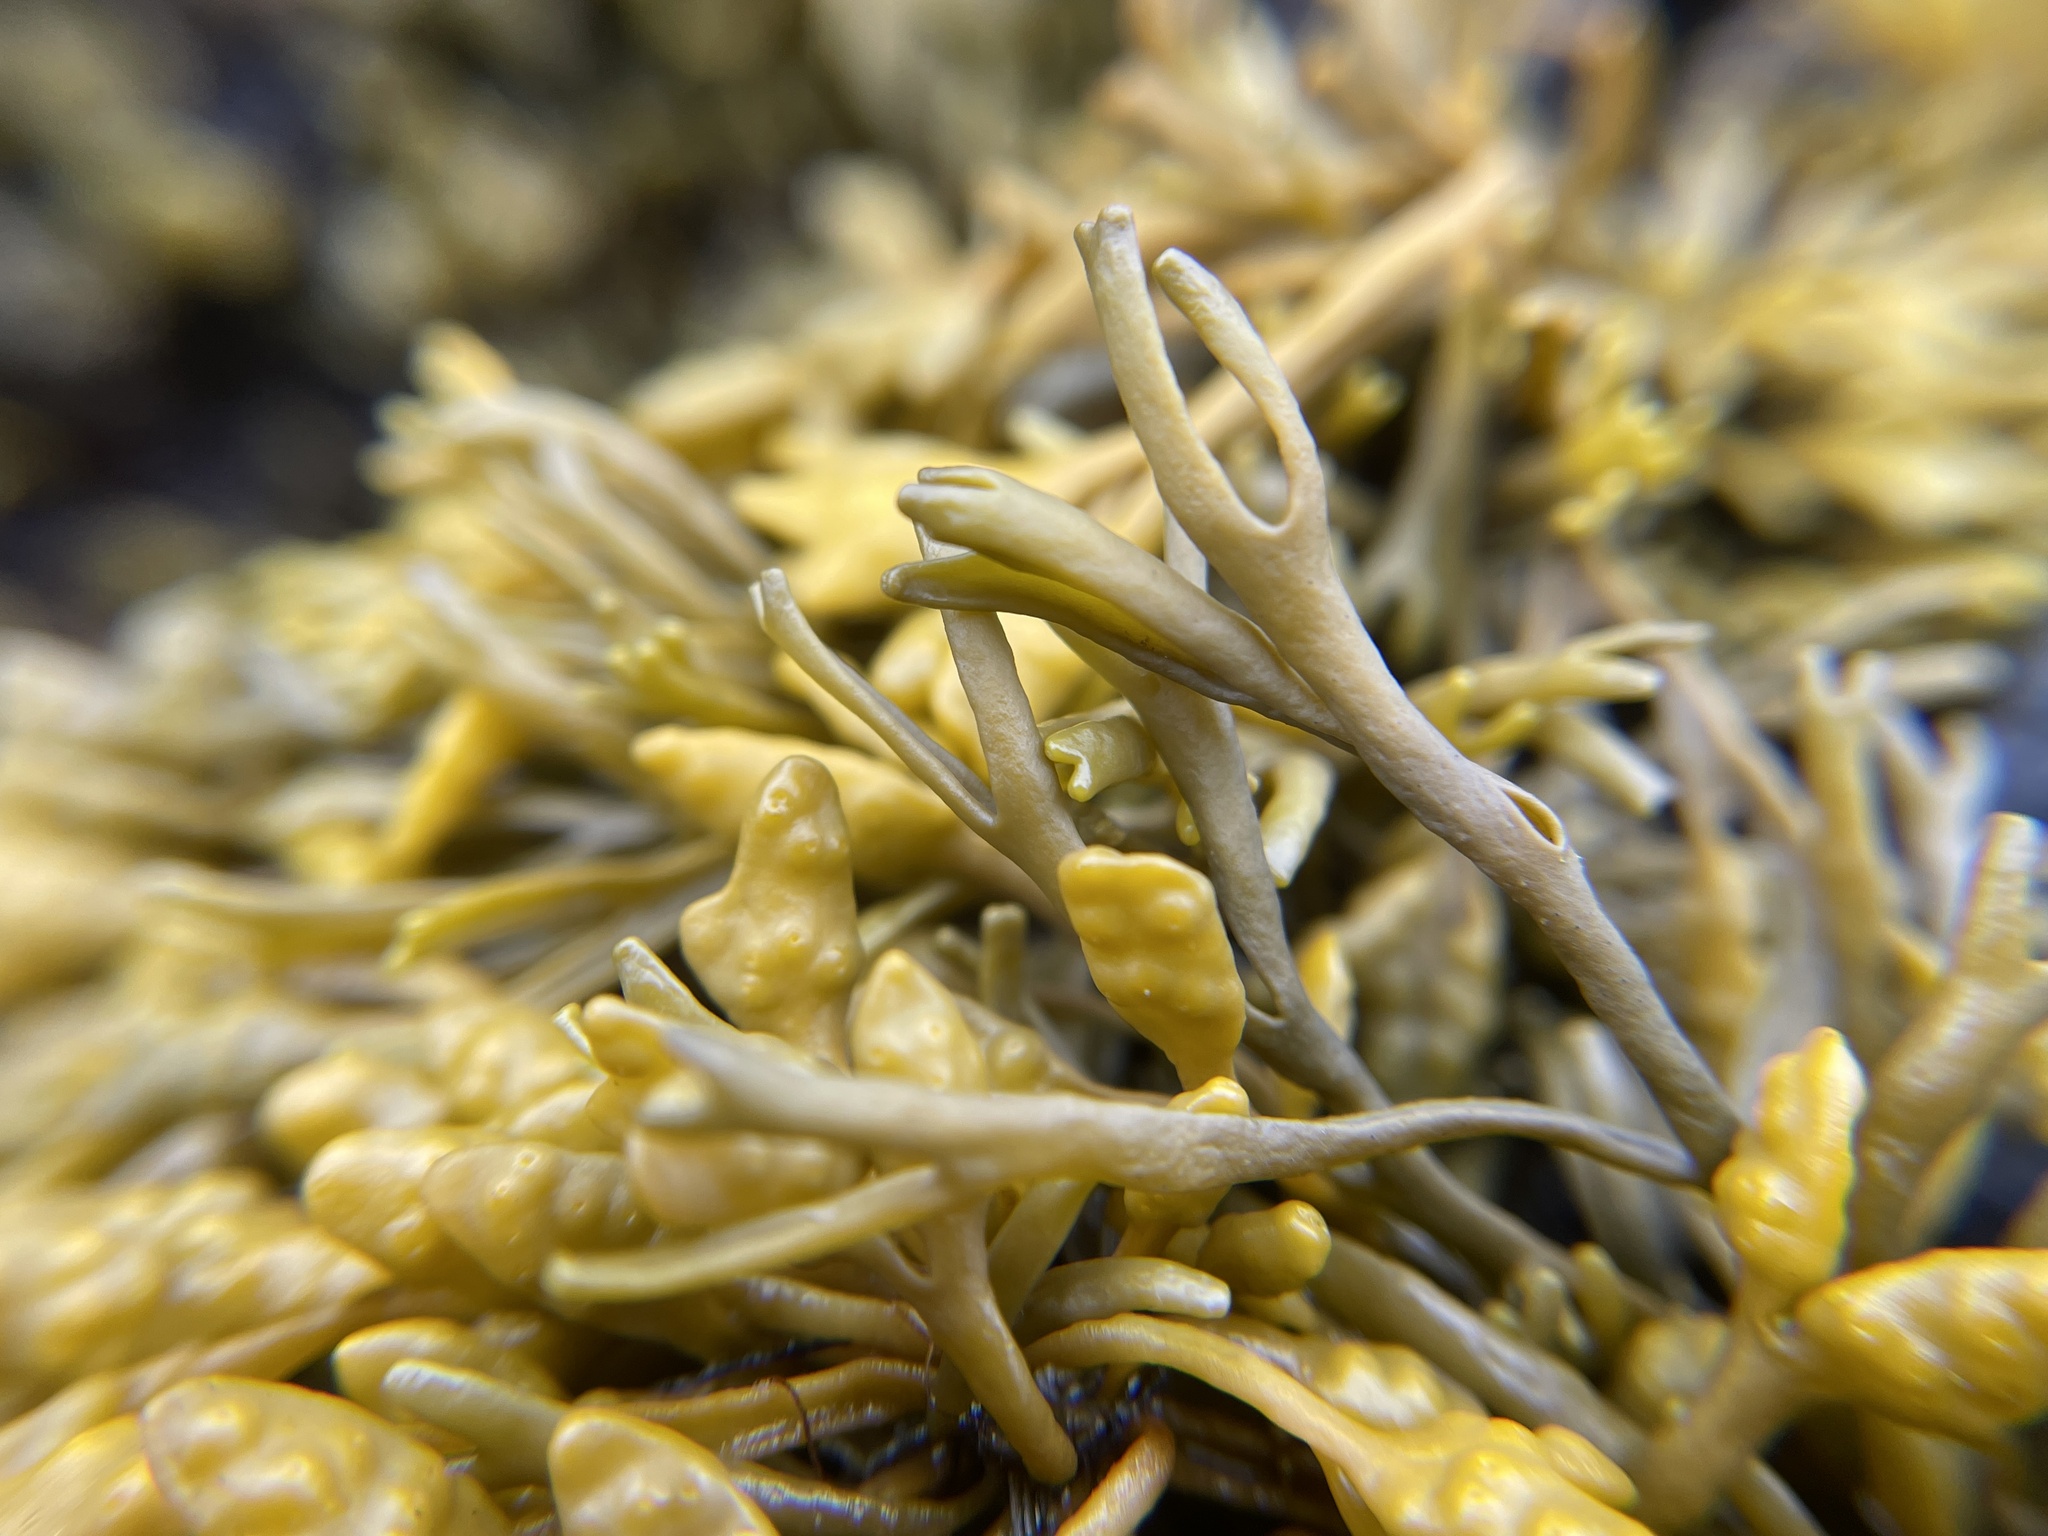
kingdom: Chromista
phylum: Ochrophyta
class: Phaeophyceae
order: Fucales
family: Fucaceae
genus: Pelvetia
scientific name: Pelvetia canaliculata
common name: Channelled wrack
